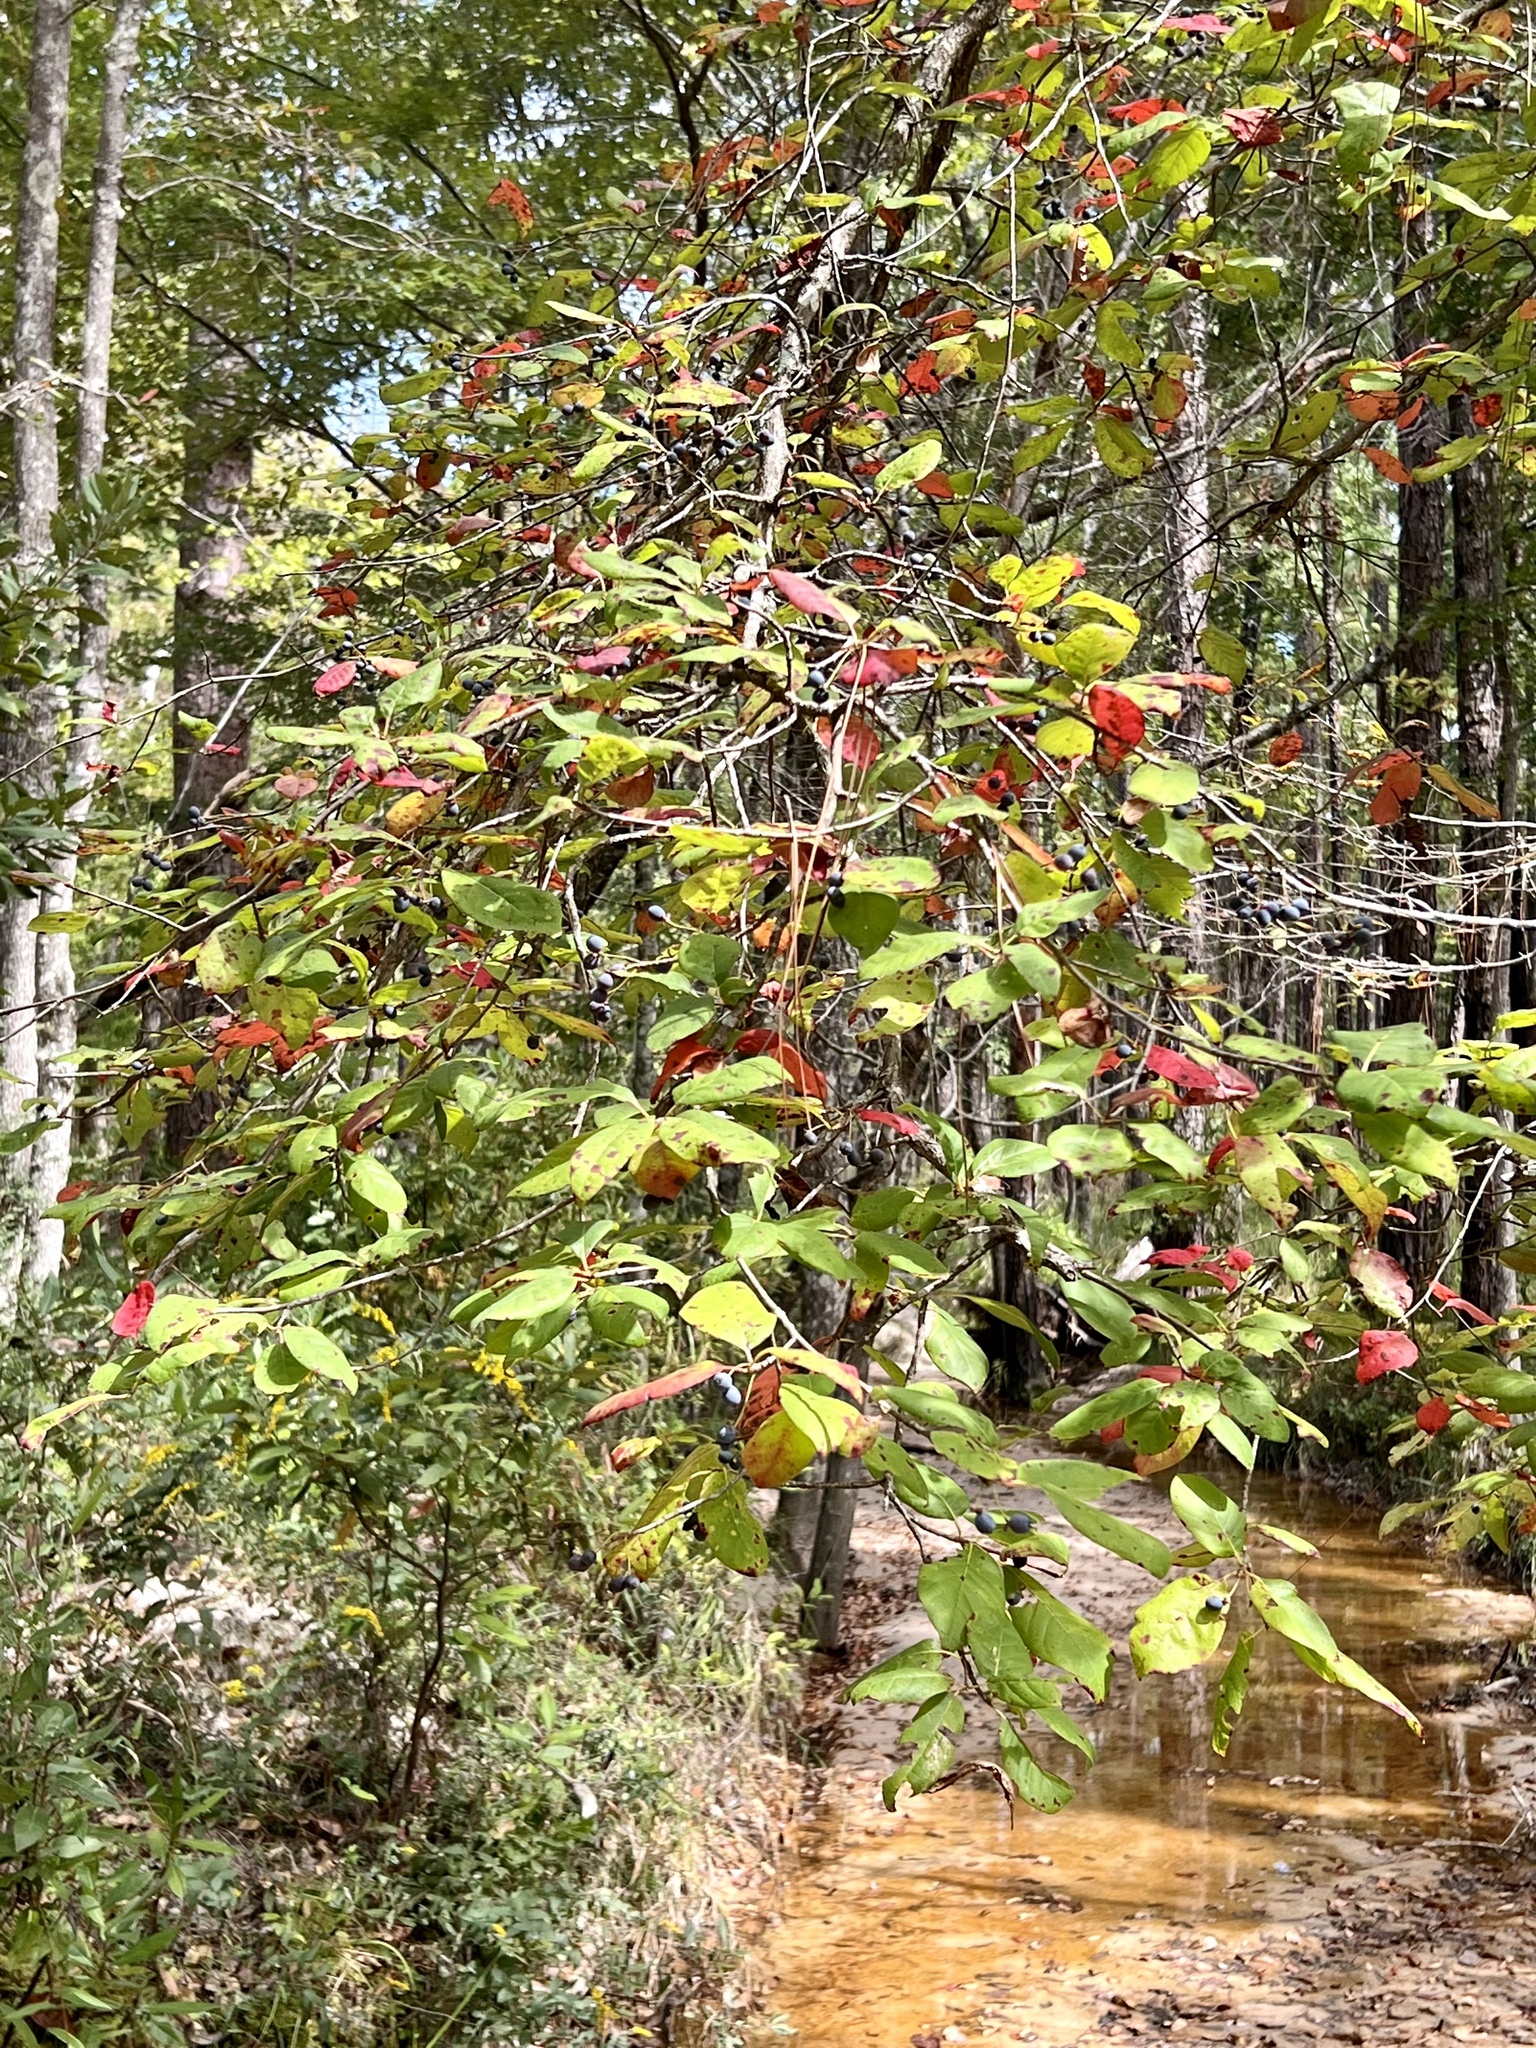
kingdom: Plantae
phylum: Tracheophyta
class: Magnoliopsida
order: Cornales
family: Nyssaceae
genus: Nyssa
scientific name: Nyssa sylvatica
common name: Black tupelo
